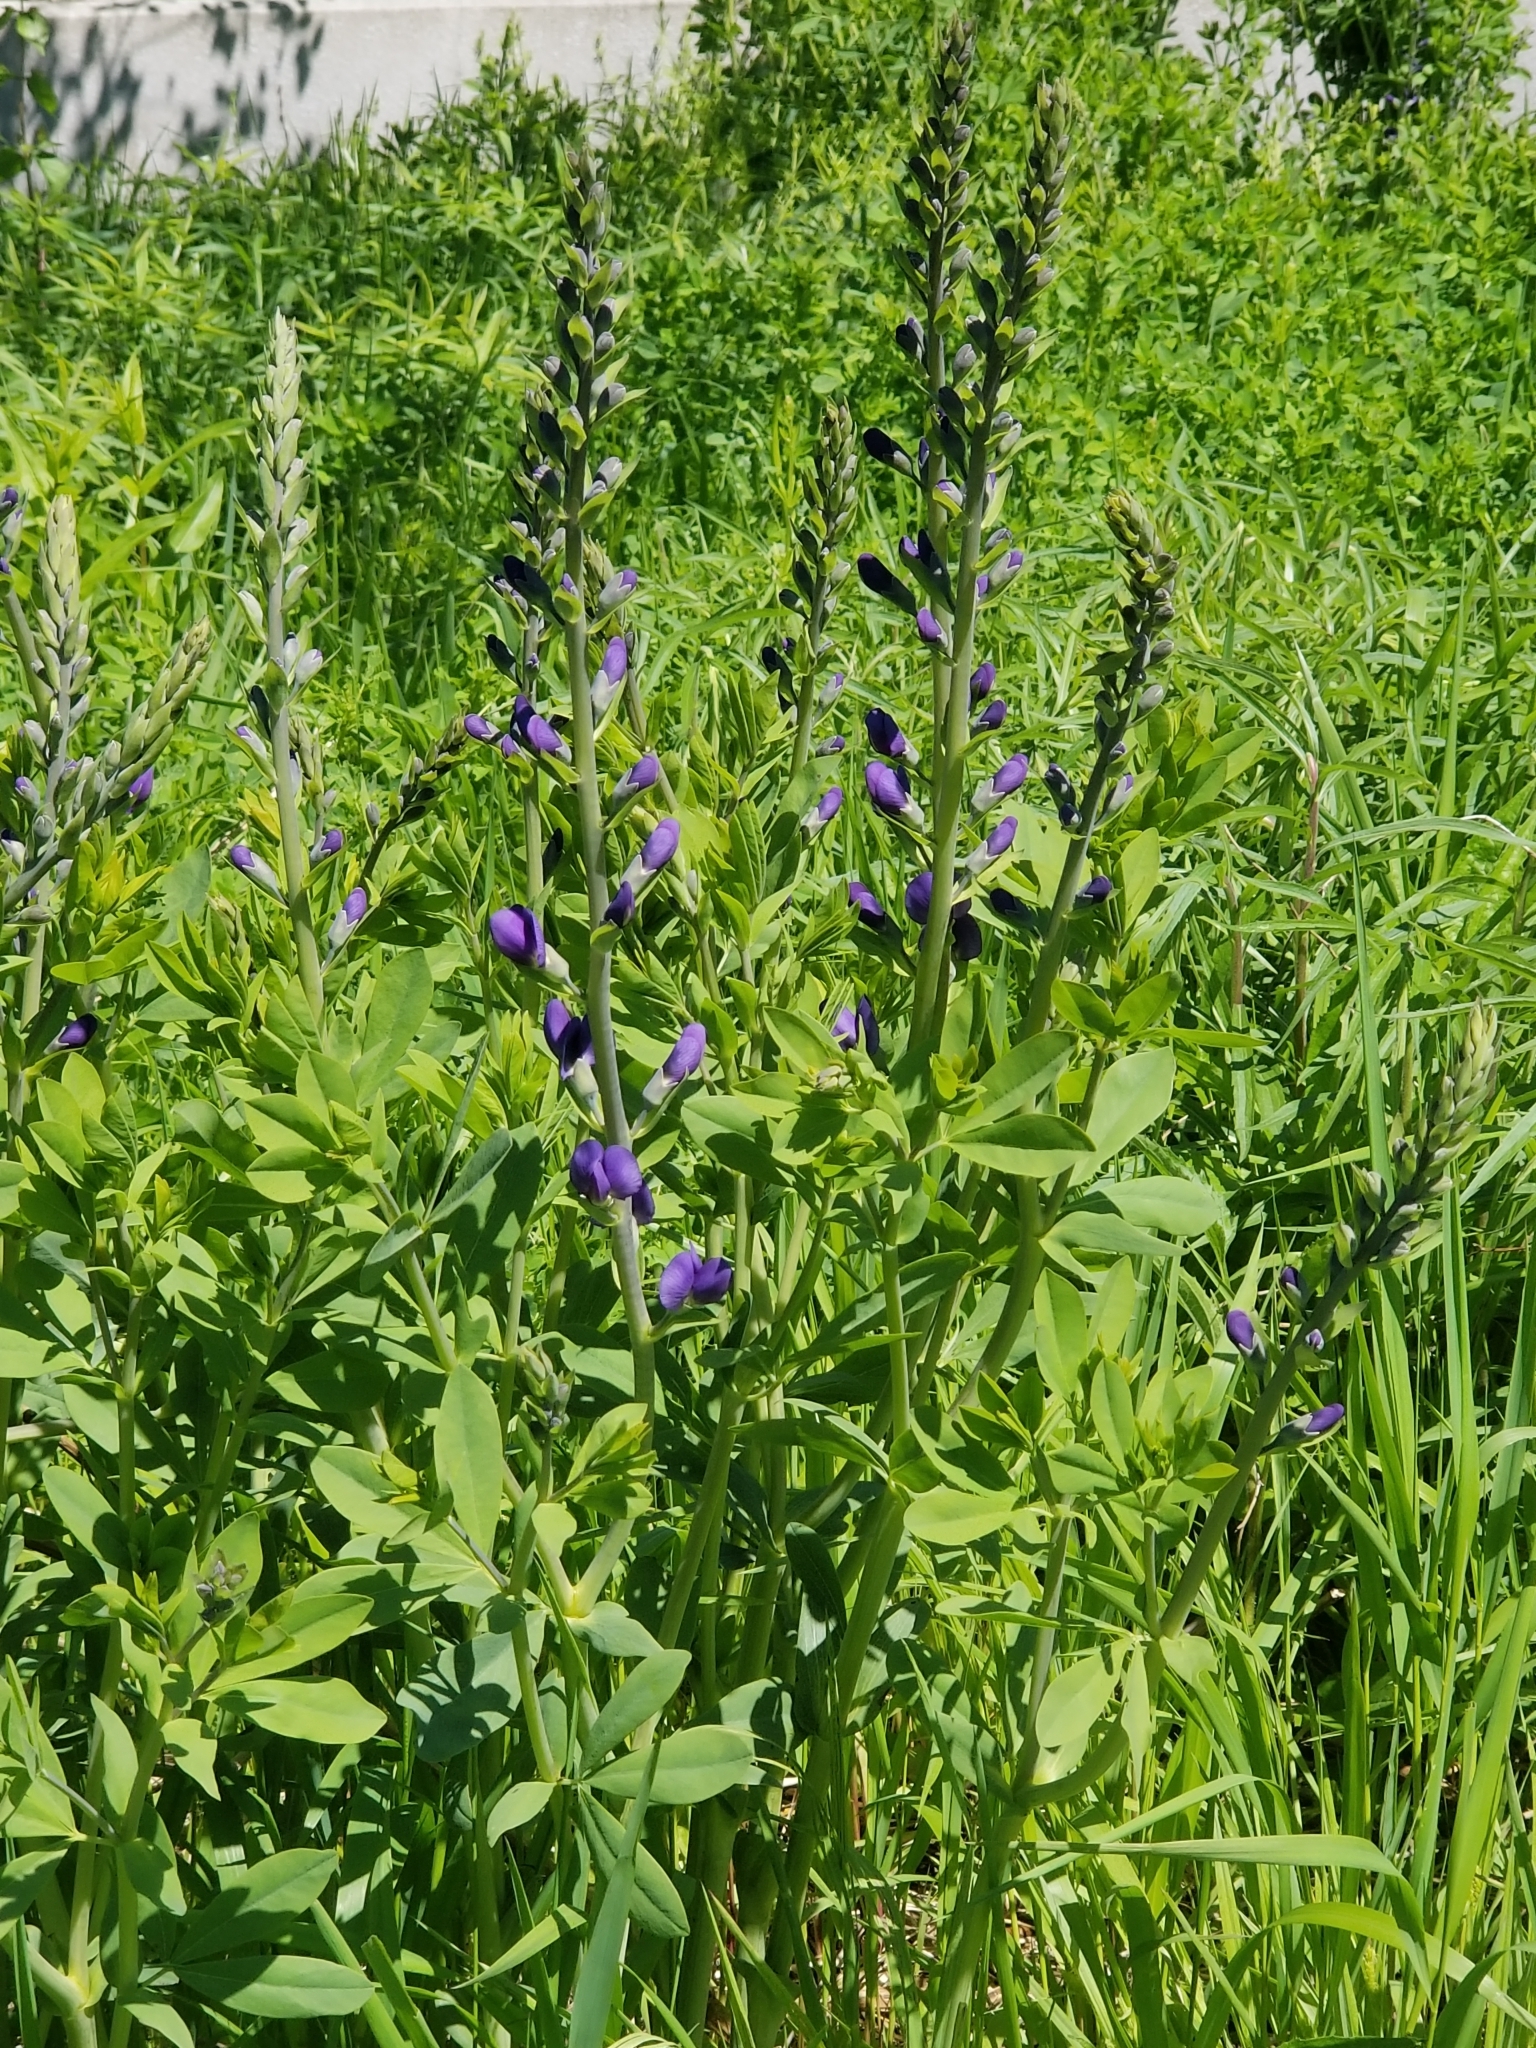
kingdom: Plantae
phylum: Tracheophyta
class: Magnoliopsida
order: Fabales
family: Fabaceae
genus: Baptisia
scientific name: Baptisia australis
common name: Blue false indigo
